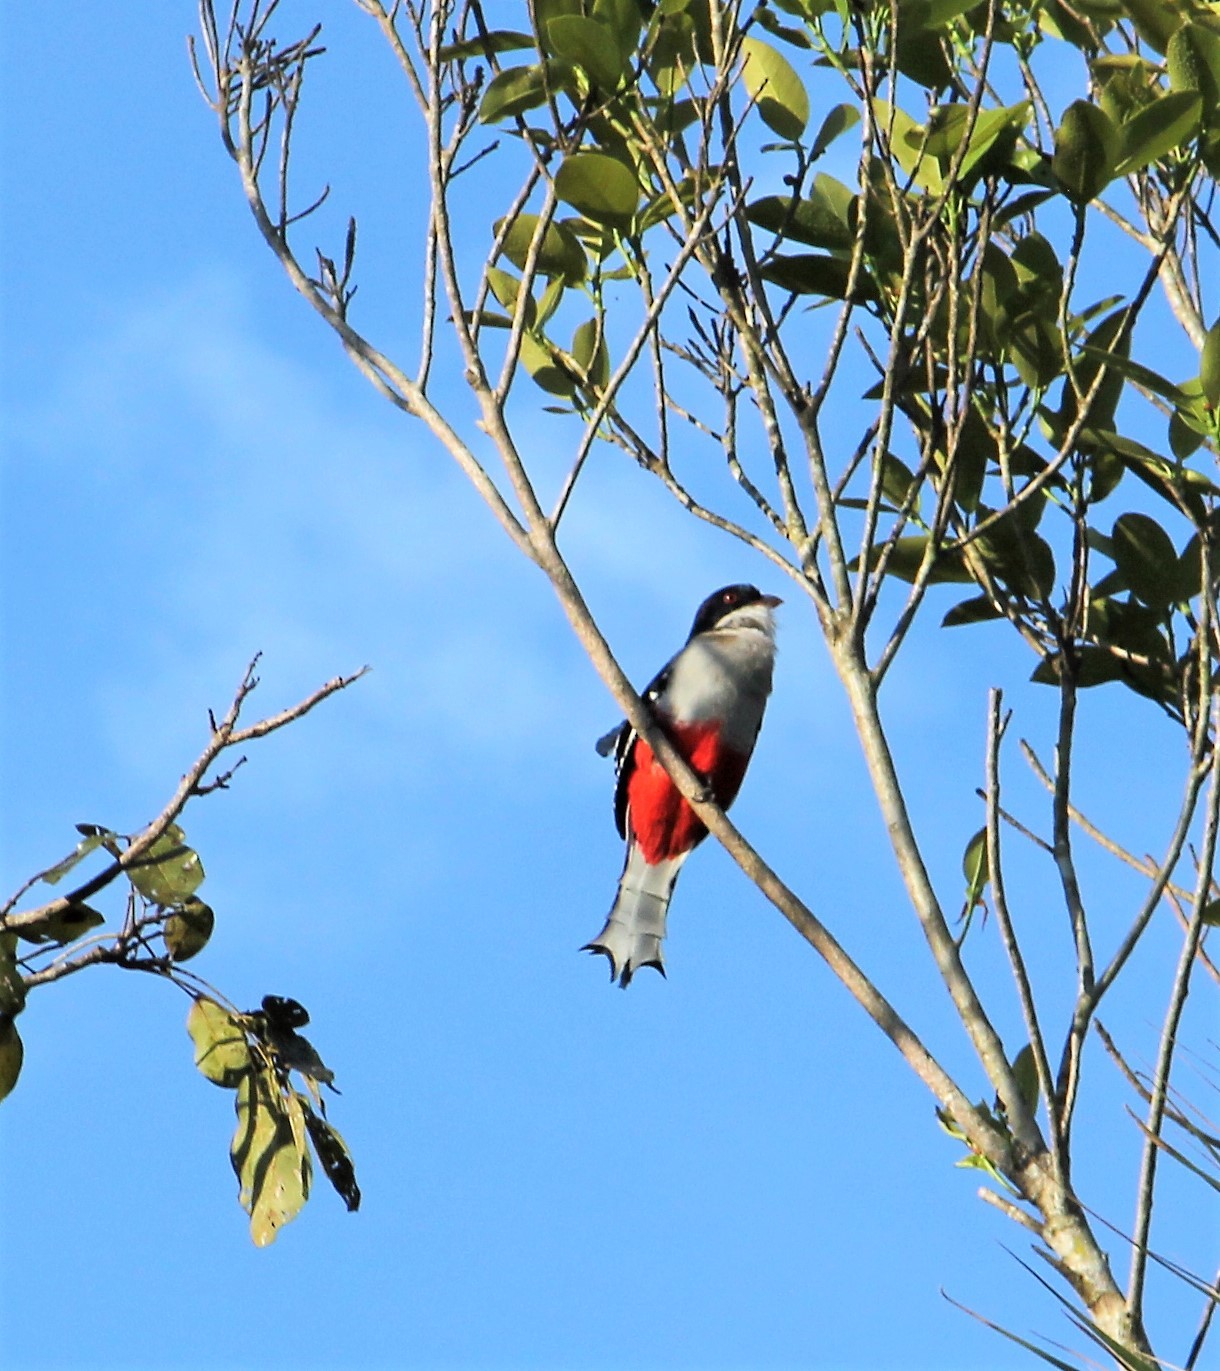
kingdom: Animalia
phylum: Chordata
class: Aves
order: Trogoniformes
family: Trogonidae
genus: Priotelus
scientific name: Priotelus temnurus
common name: Cuban trogon
